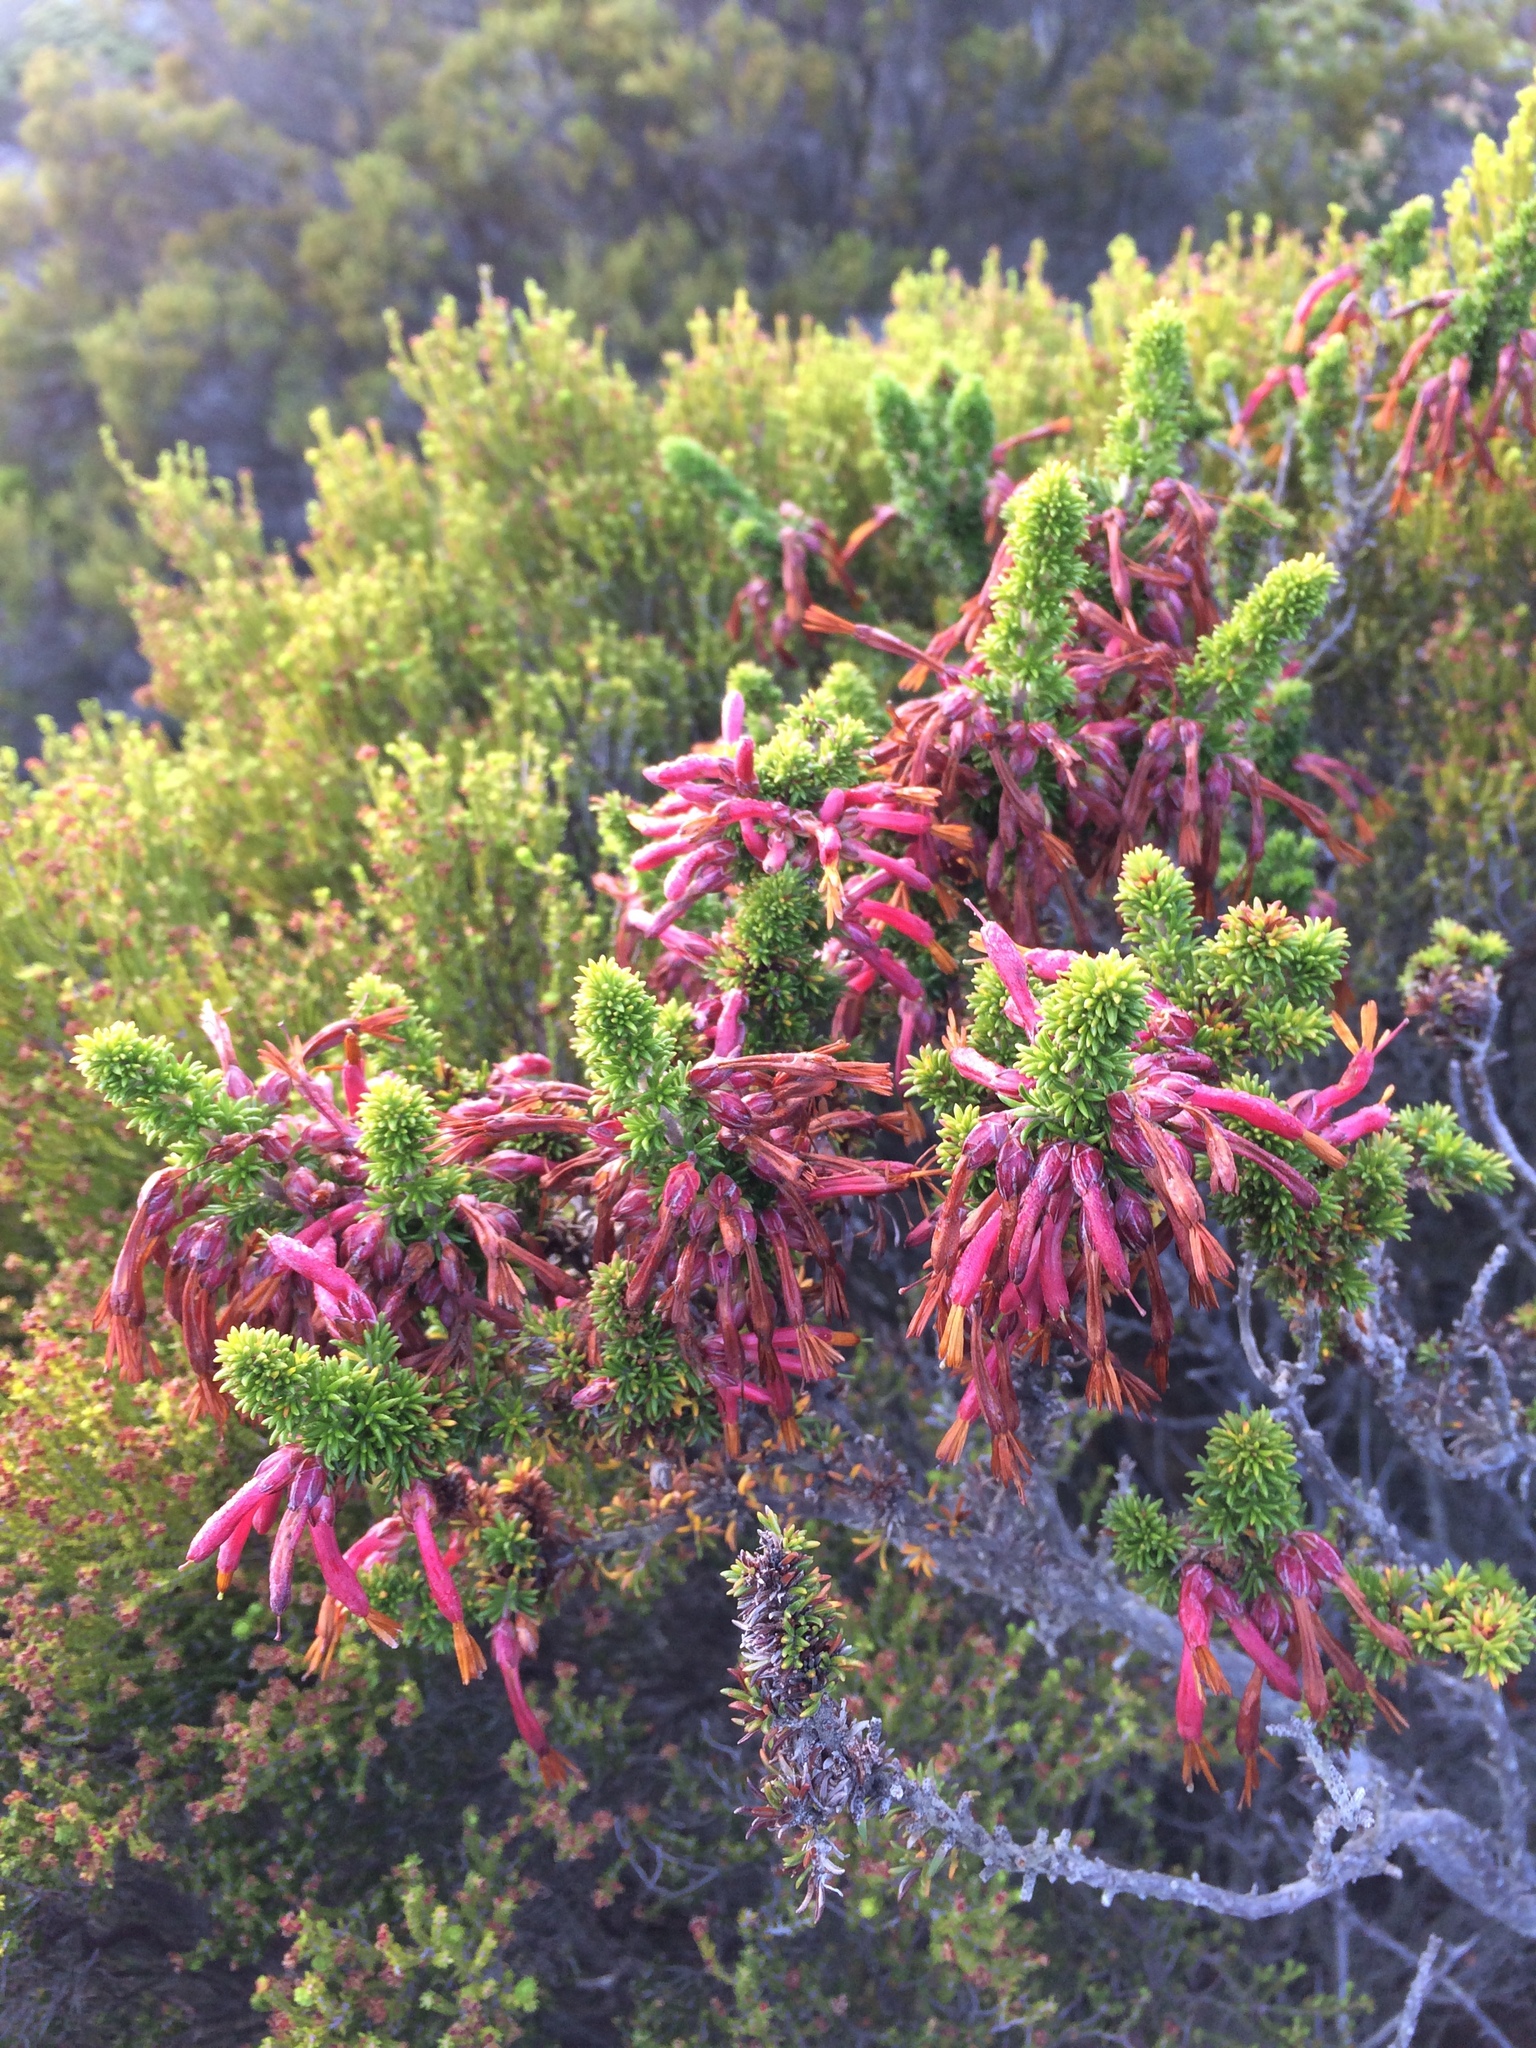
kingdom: Plantae
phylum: Tracheophyta
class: Magnoliopsida
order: Ericales
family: Ericaceae
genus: Erica
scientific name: Erica coccinea
